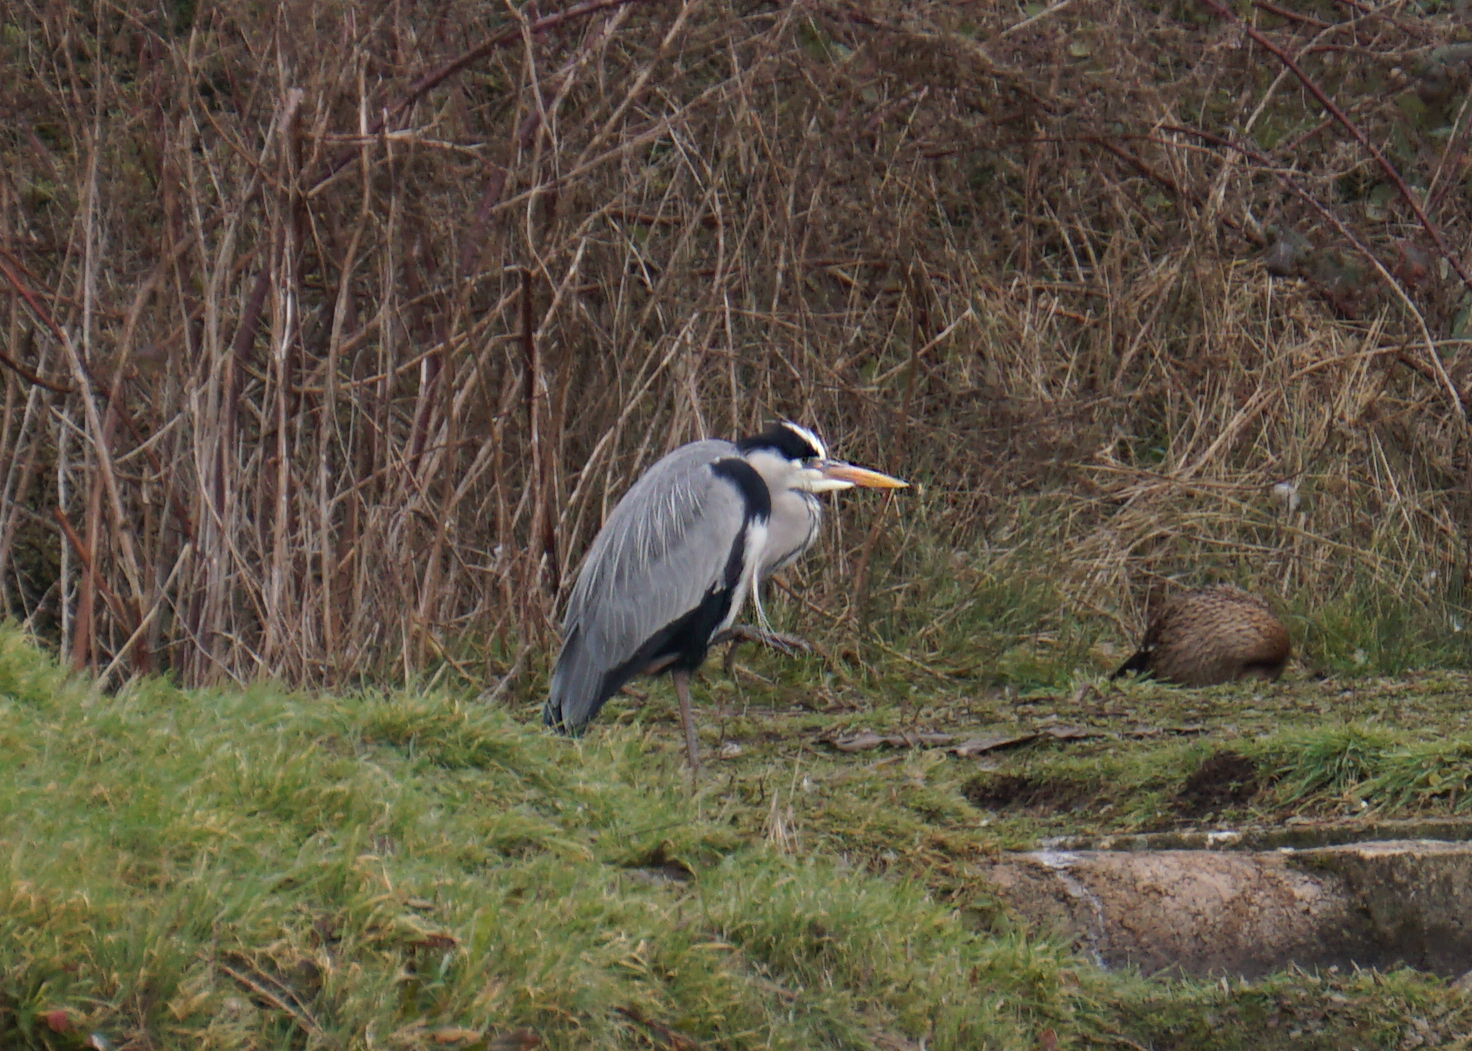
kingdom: Animalia
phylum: Chordata
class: Aves
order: Pelecaniformes
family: Ardeidae
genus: Ardea
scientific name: Ardea cinerea
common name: Grey heron
